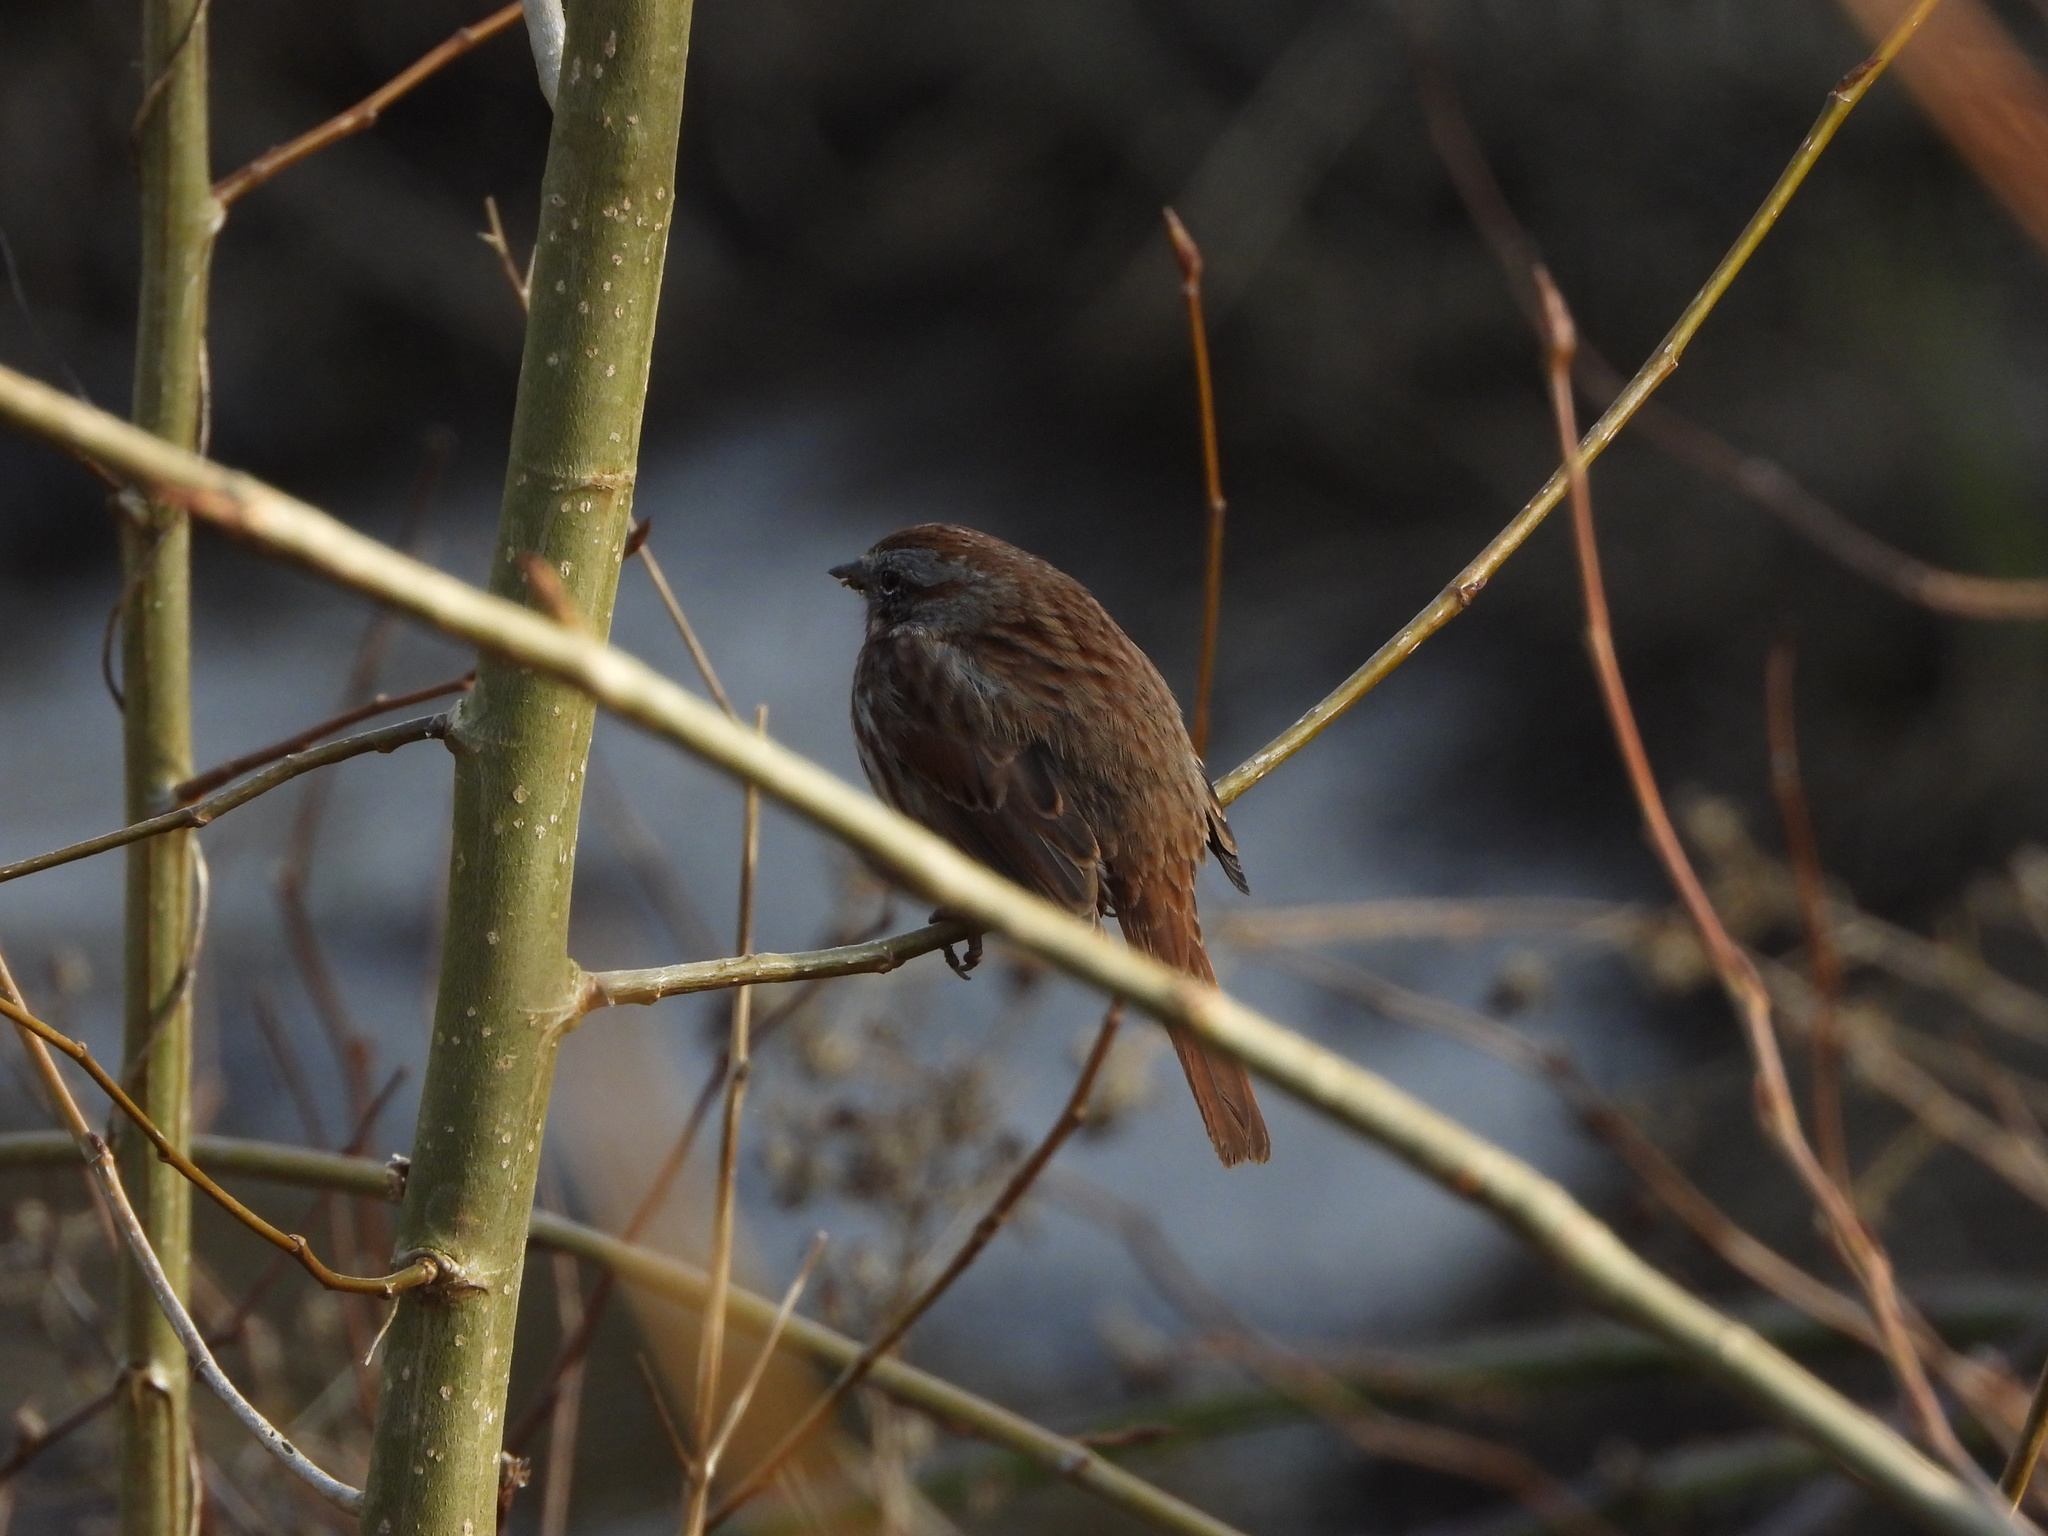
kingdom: Animalia
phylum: Chordata
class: Aves
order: Passeriformes
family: Passerellidae
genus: Melospiza
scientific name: Melospiza melodia
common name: Song sparrow
